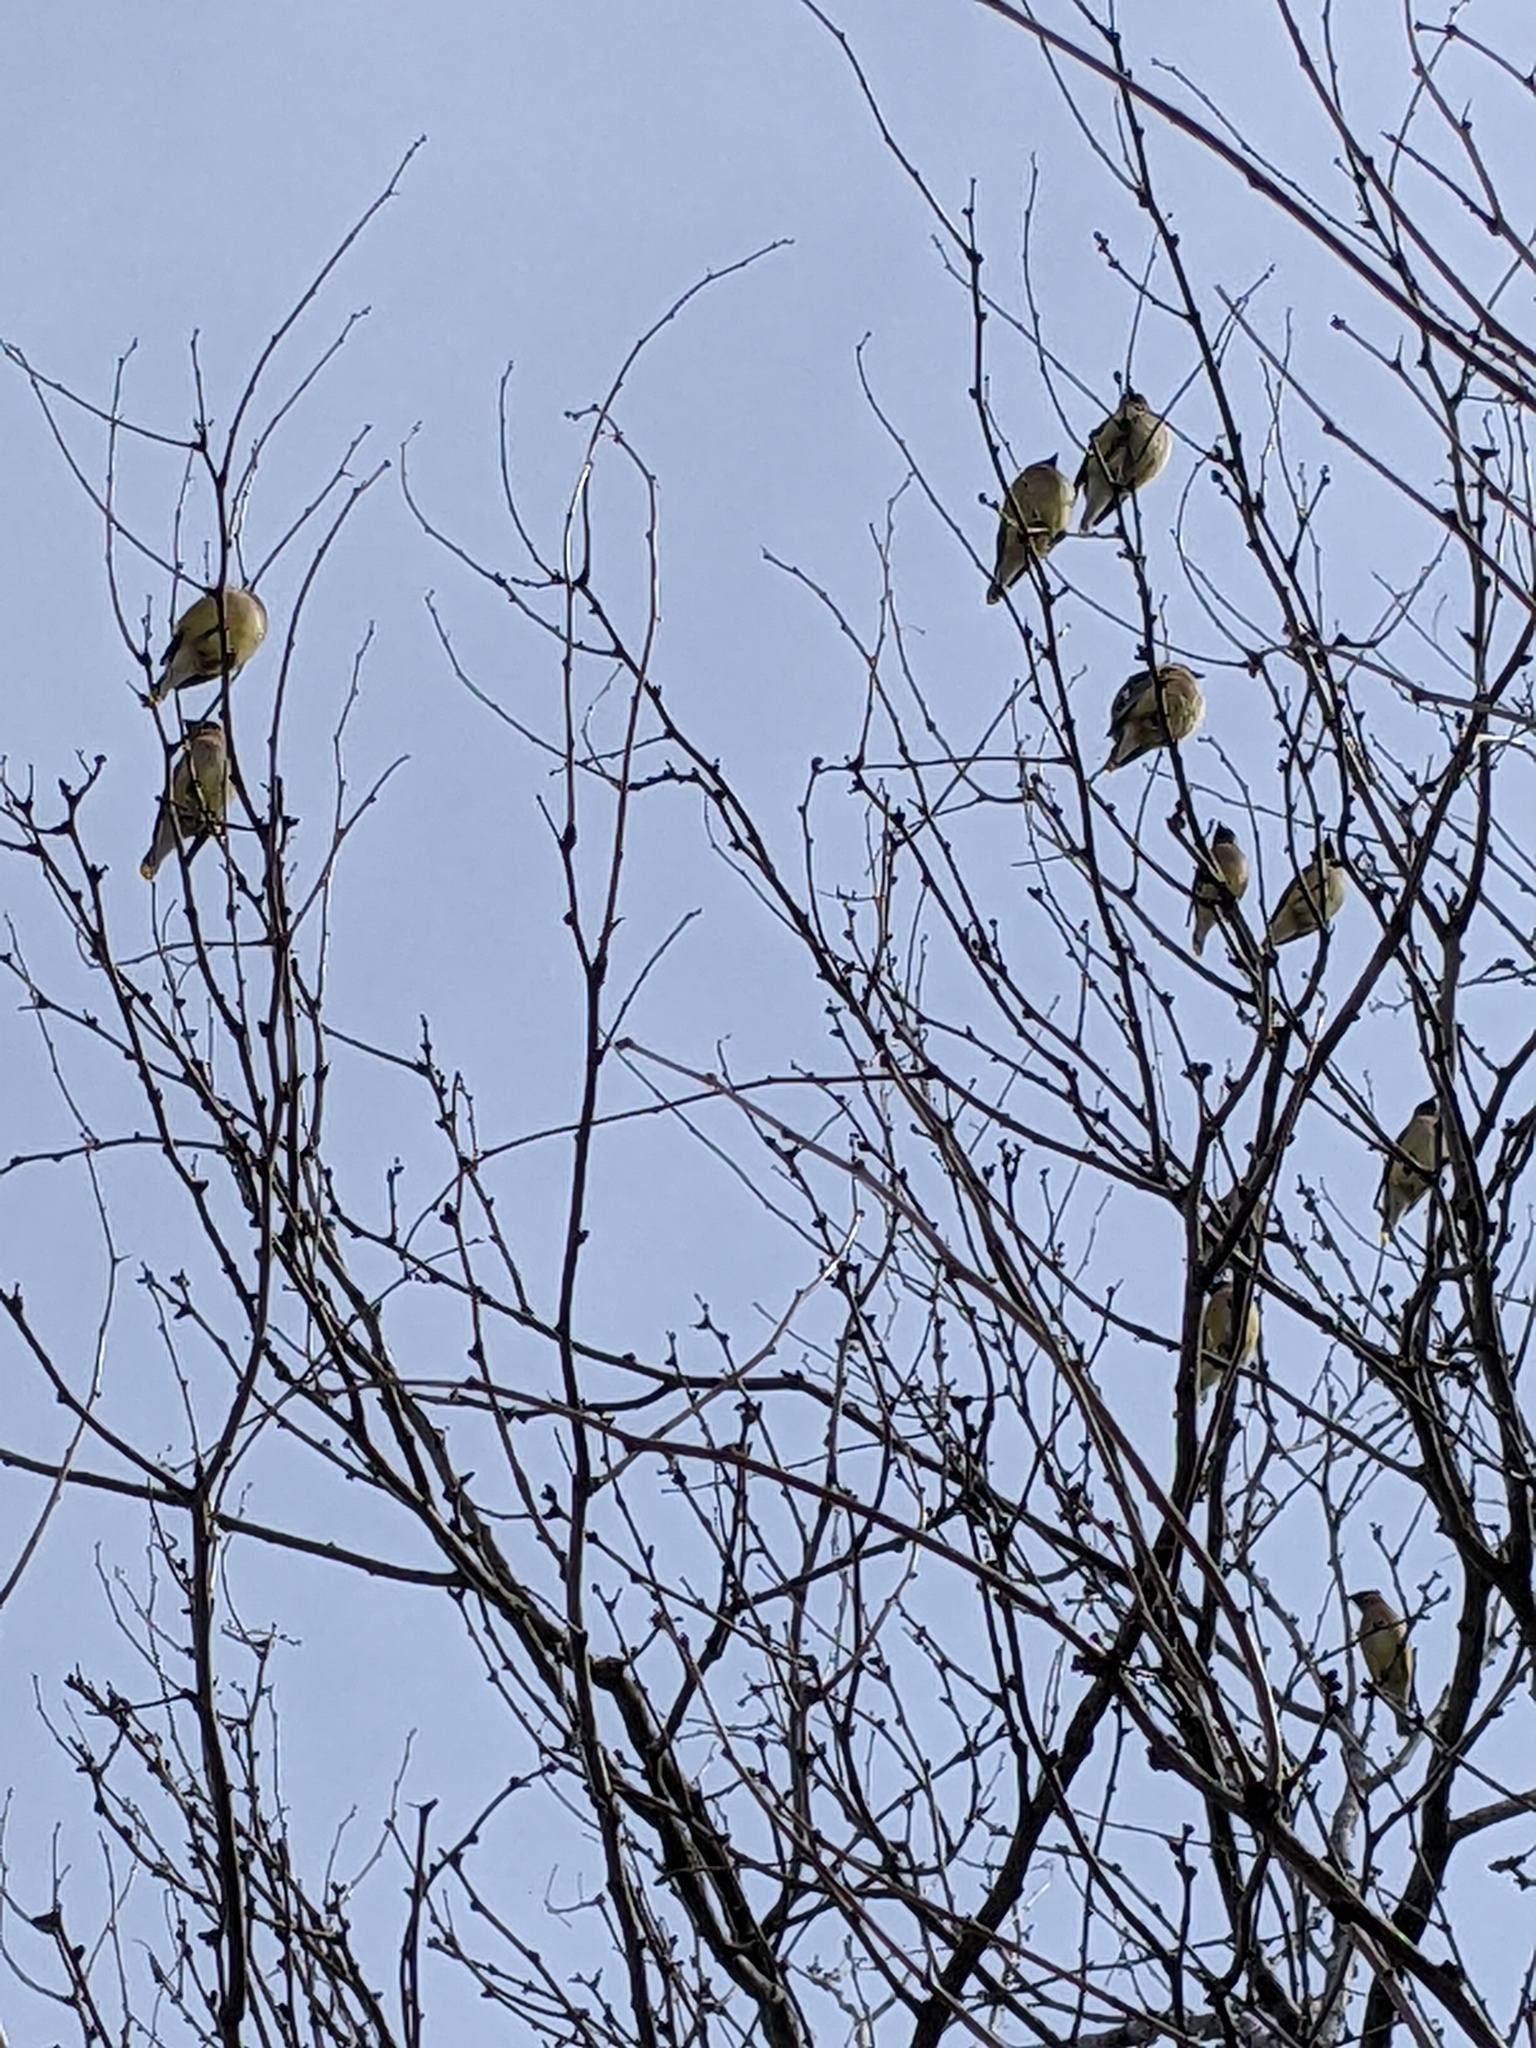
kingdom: Animalia
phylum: Chordata
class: Aves
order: Passeriformes
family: Bombycillidae
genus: Bombycilla
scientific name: Bombycilla cedrorum
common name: Cedar waxwing
